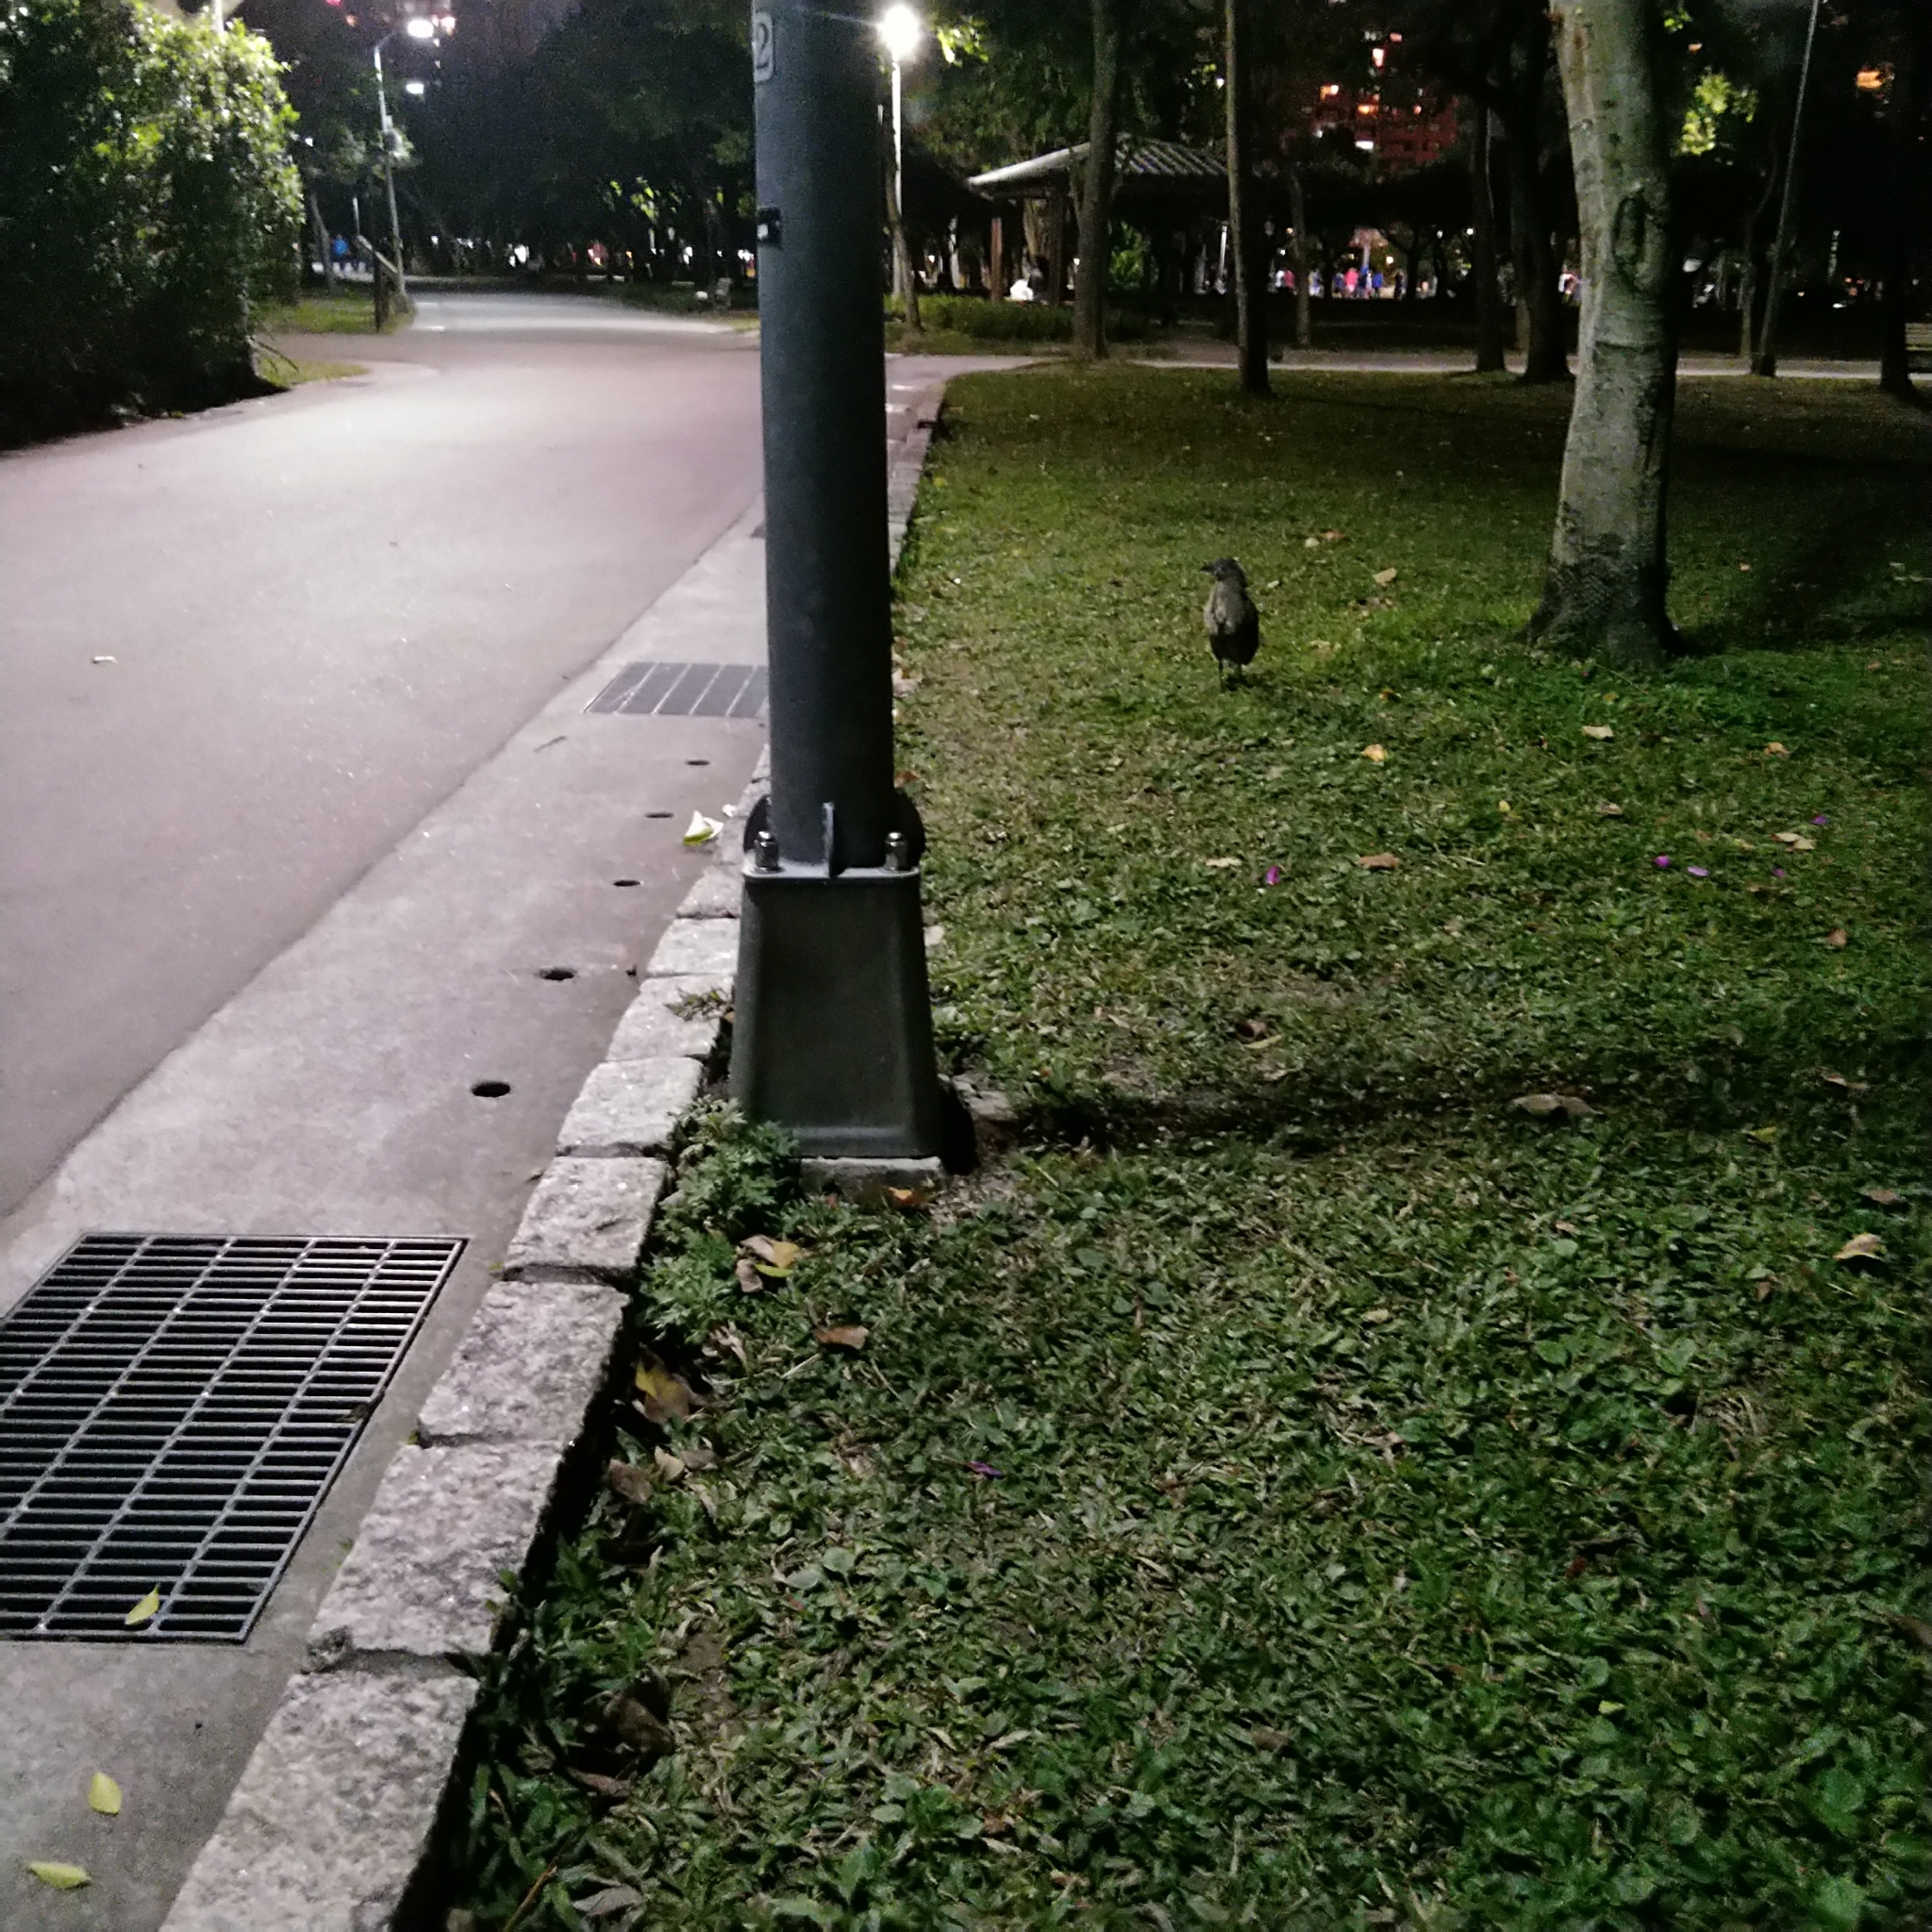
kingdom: Animalia
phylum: Chordata
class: Aves
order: Pelecaniformes
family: Ardeidae
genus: Gorsachius
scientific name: Gorsachius melanolophus
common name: Malayan night heron
